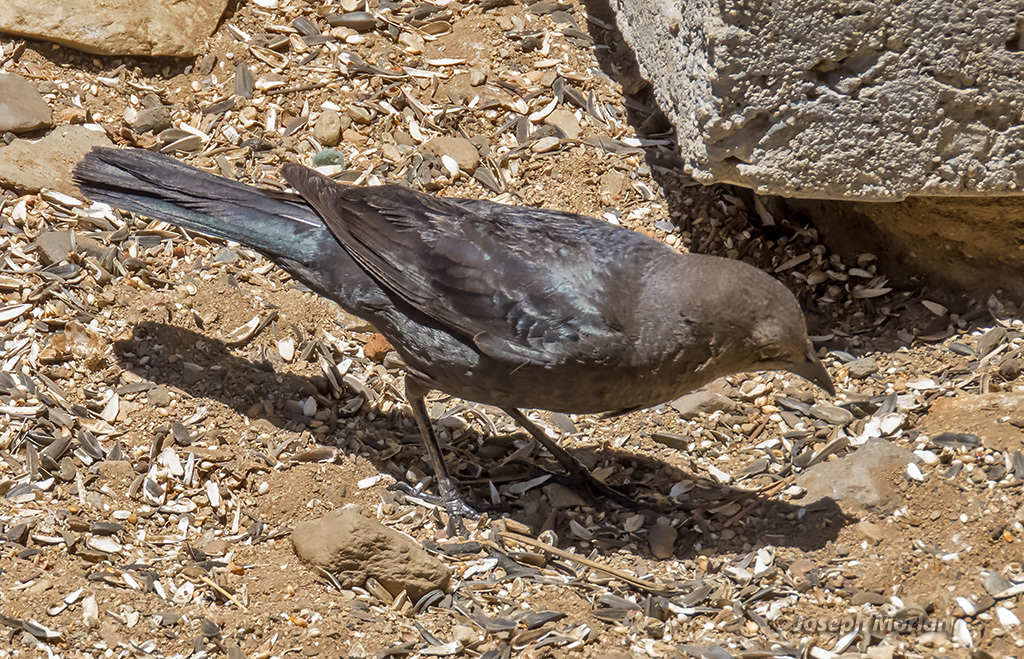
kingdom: Animalia
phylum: Chordata
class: Aves
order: Passeriformes
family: Icteridae
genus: Euphagus
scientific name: Euphagus cyanocephalus
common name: Brewer's blackbird
